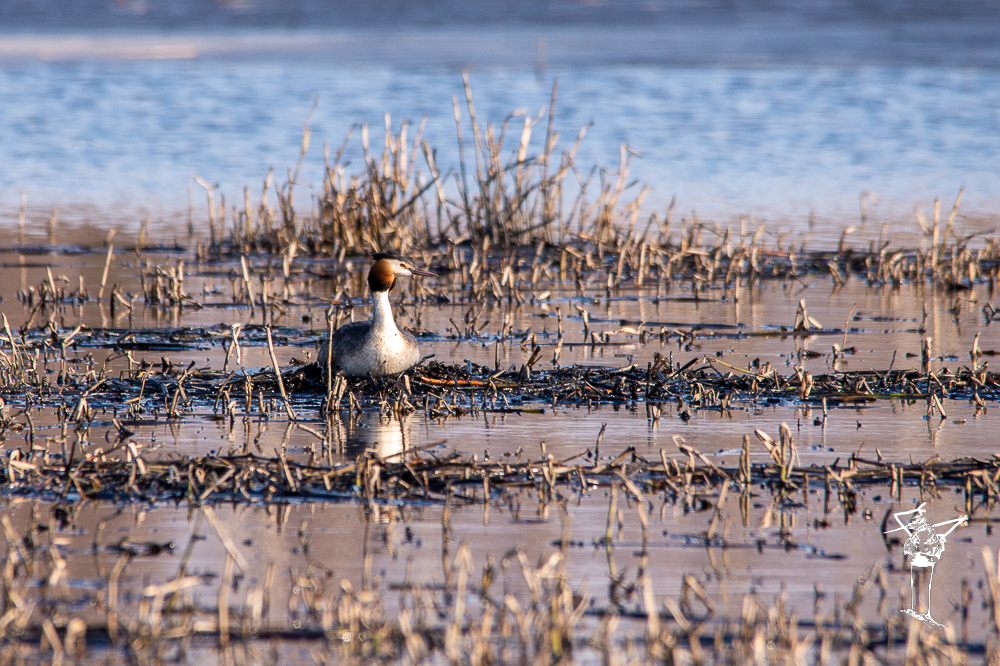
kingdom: Animalia
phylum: Chordata
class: Aves
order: Podicipediformes
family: Podicipedidae
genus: Podiceps
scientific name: Podiceps cristatus
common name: Great crested grebe
